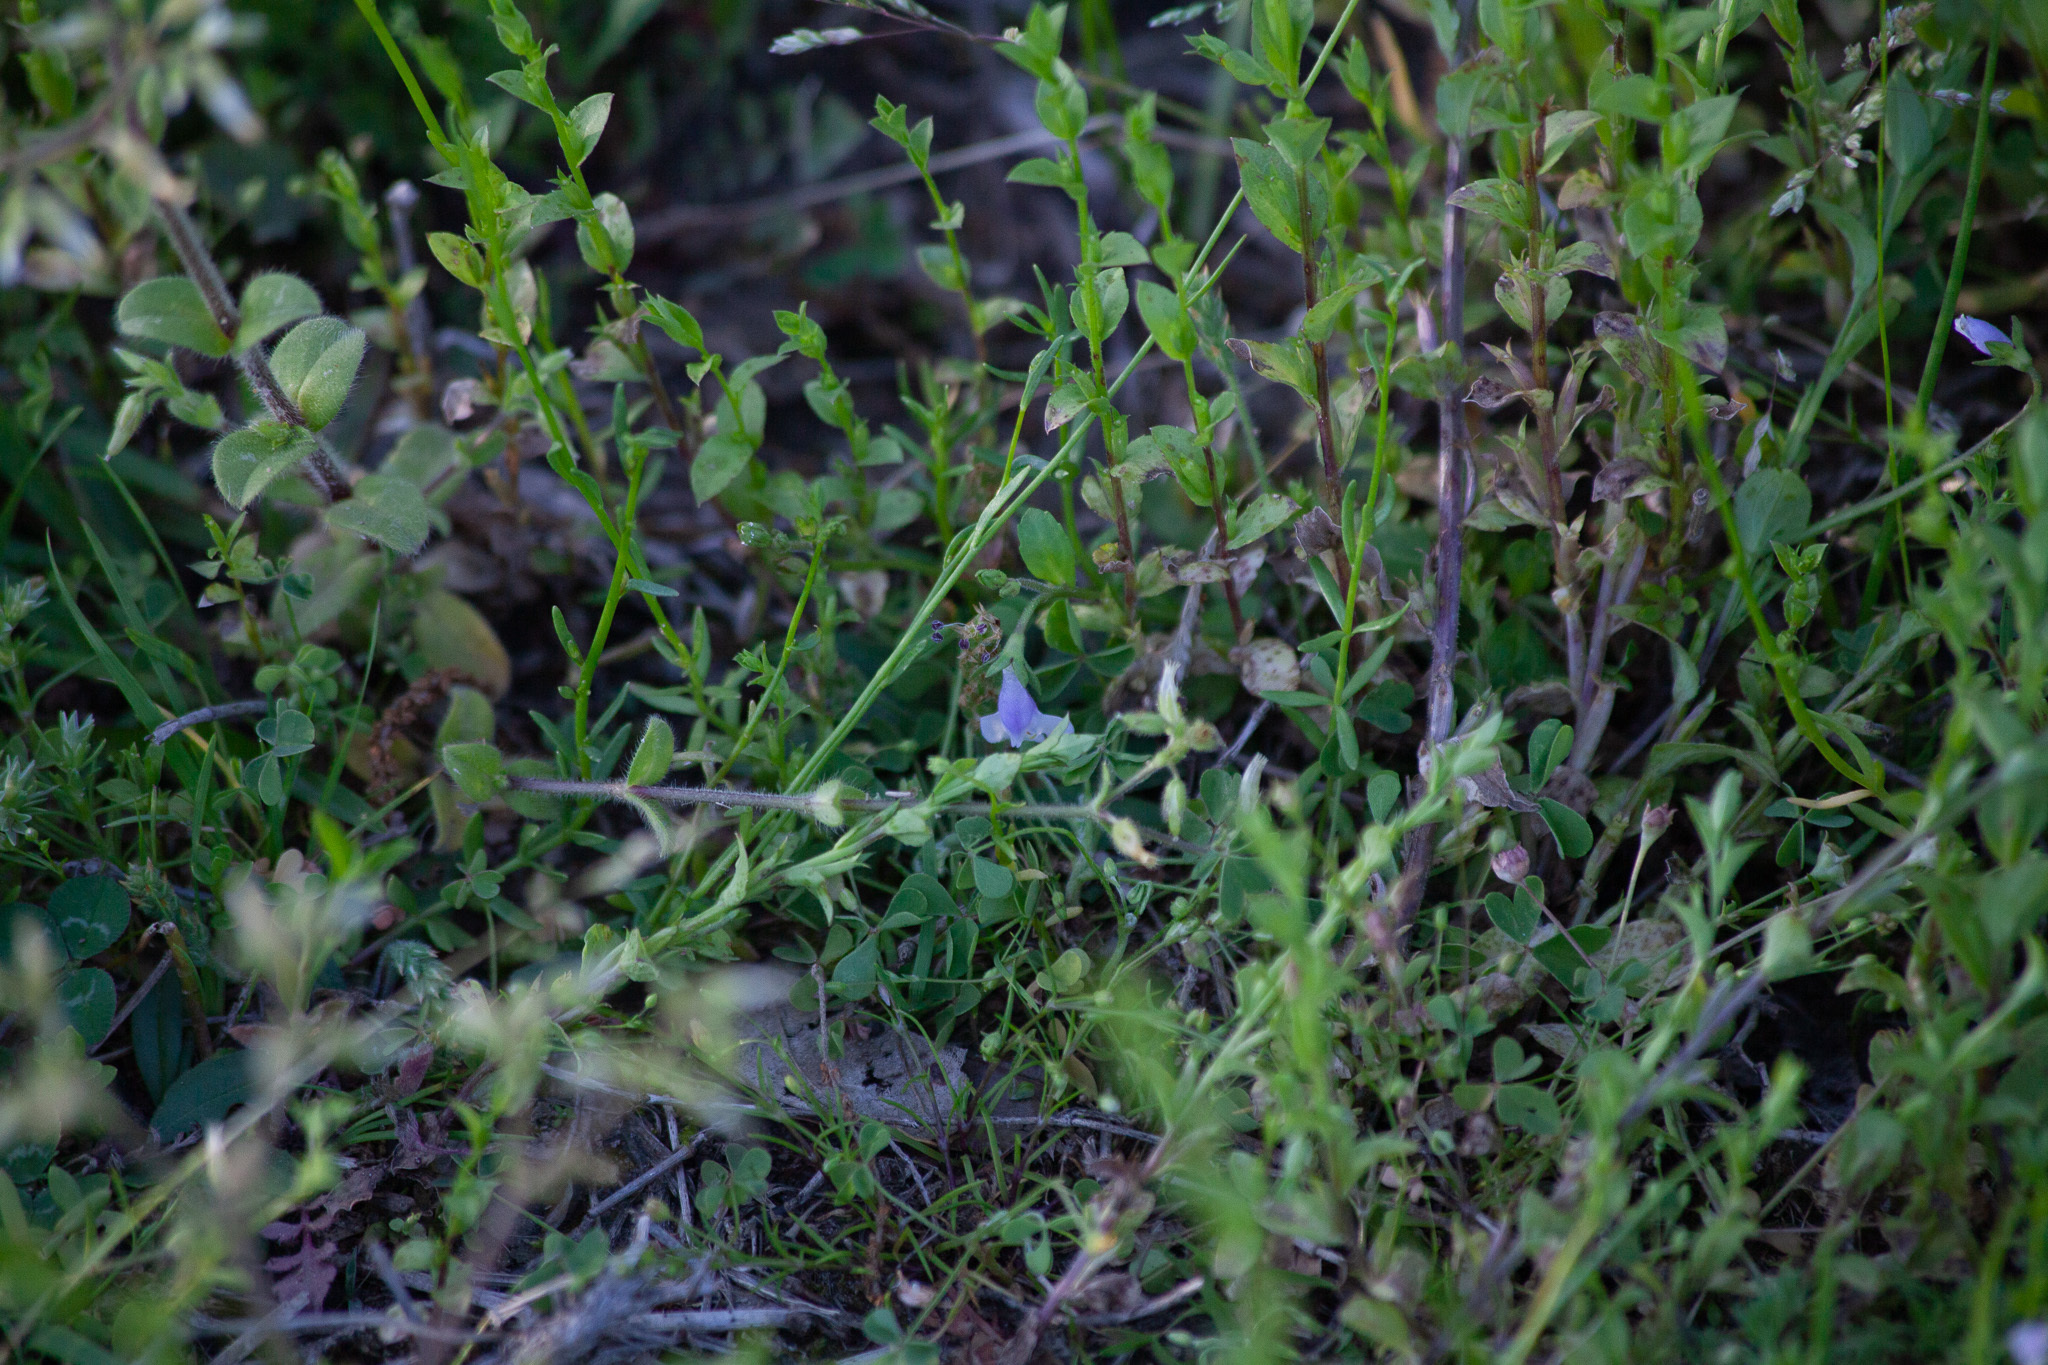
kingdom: Plantae
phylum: Tracheophyta
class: Magnoliopsida
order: Lamiales
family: Mazaceae
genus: Mazus
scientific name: Mazus pumilus
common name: Japanese mazus
